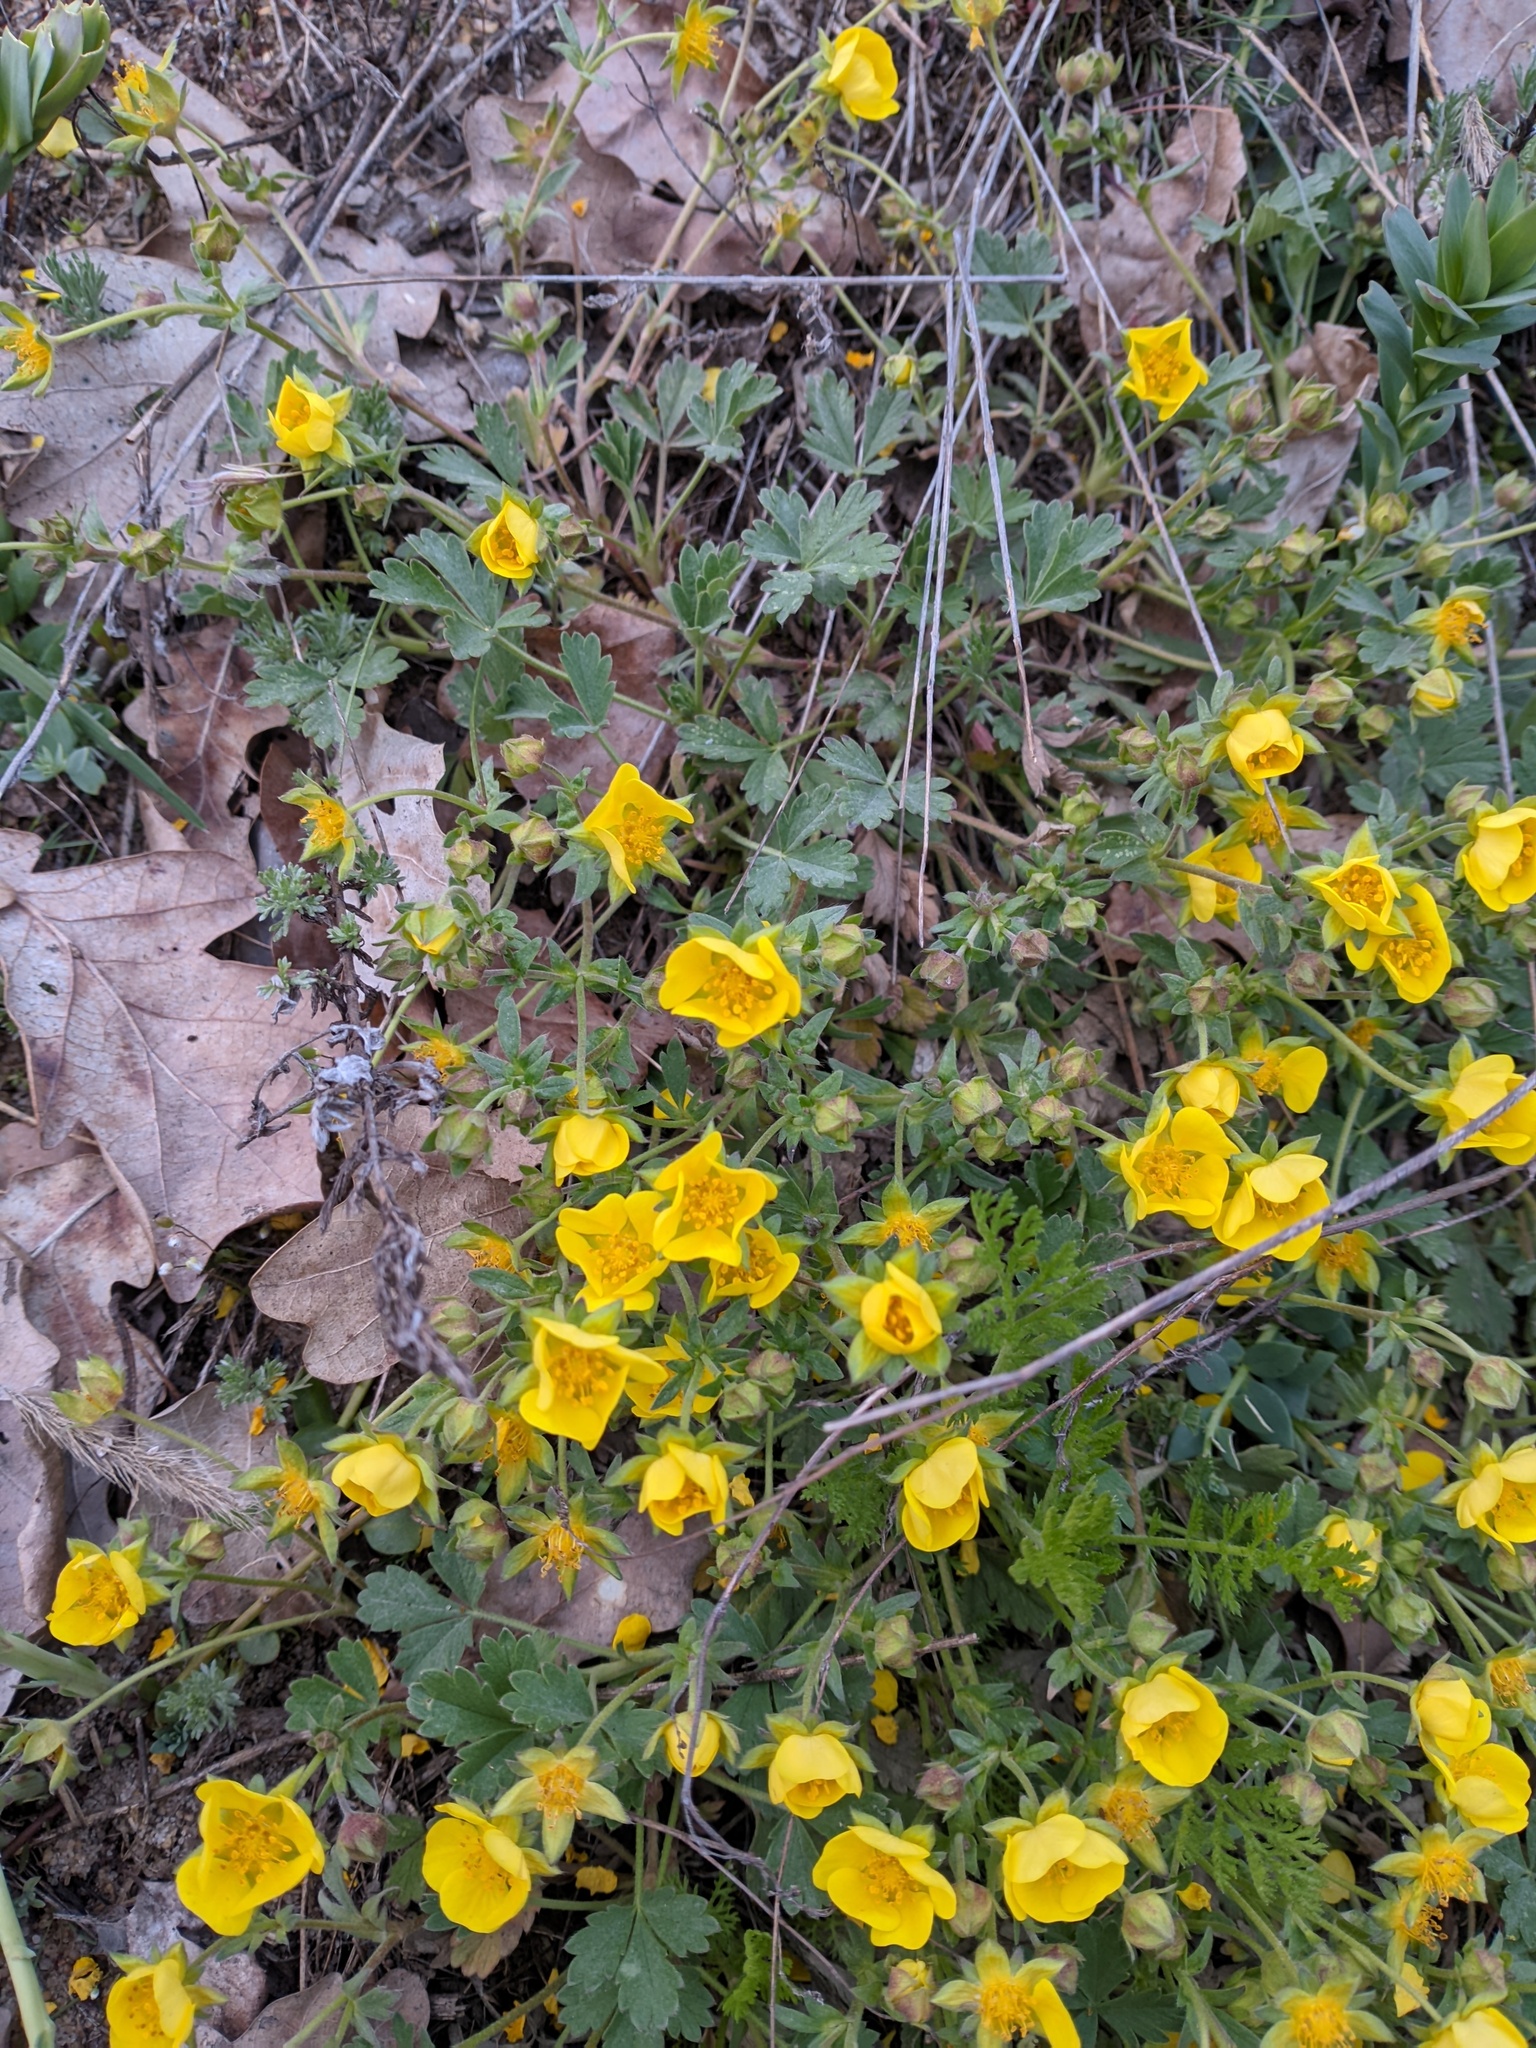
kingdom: Plantae
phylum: Tracheophyta
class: Magnoliopsida
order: Rosales
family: Rosaceae
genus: Potentilla
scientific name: Potentilla incana
